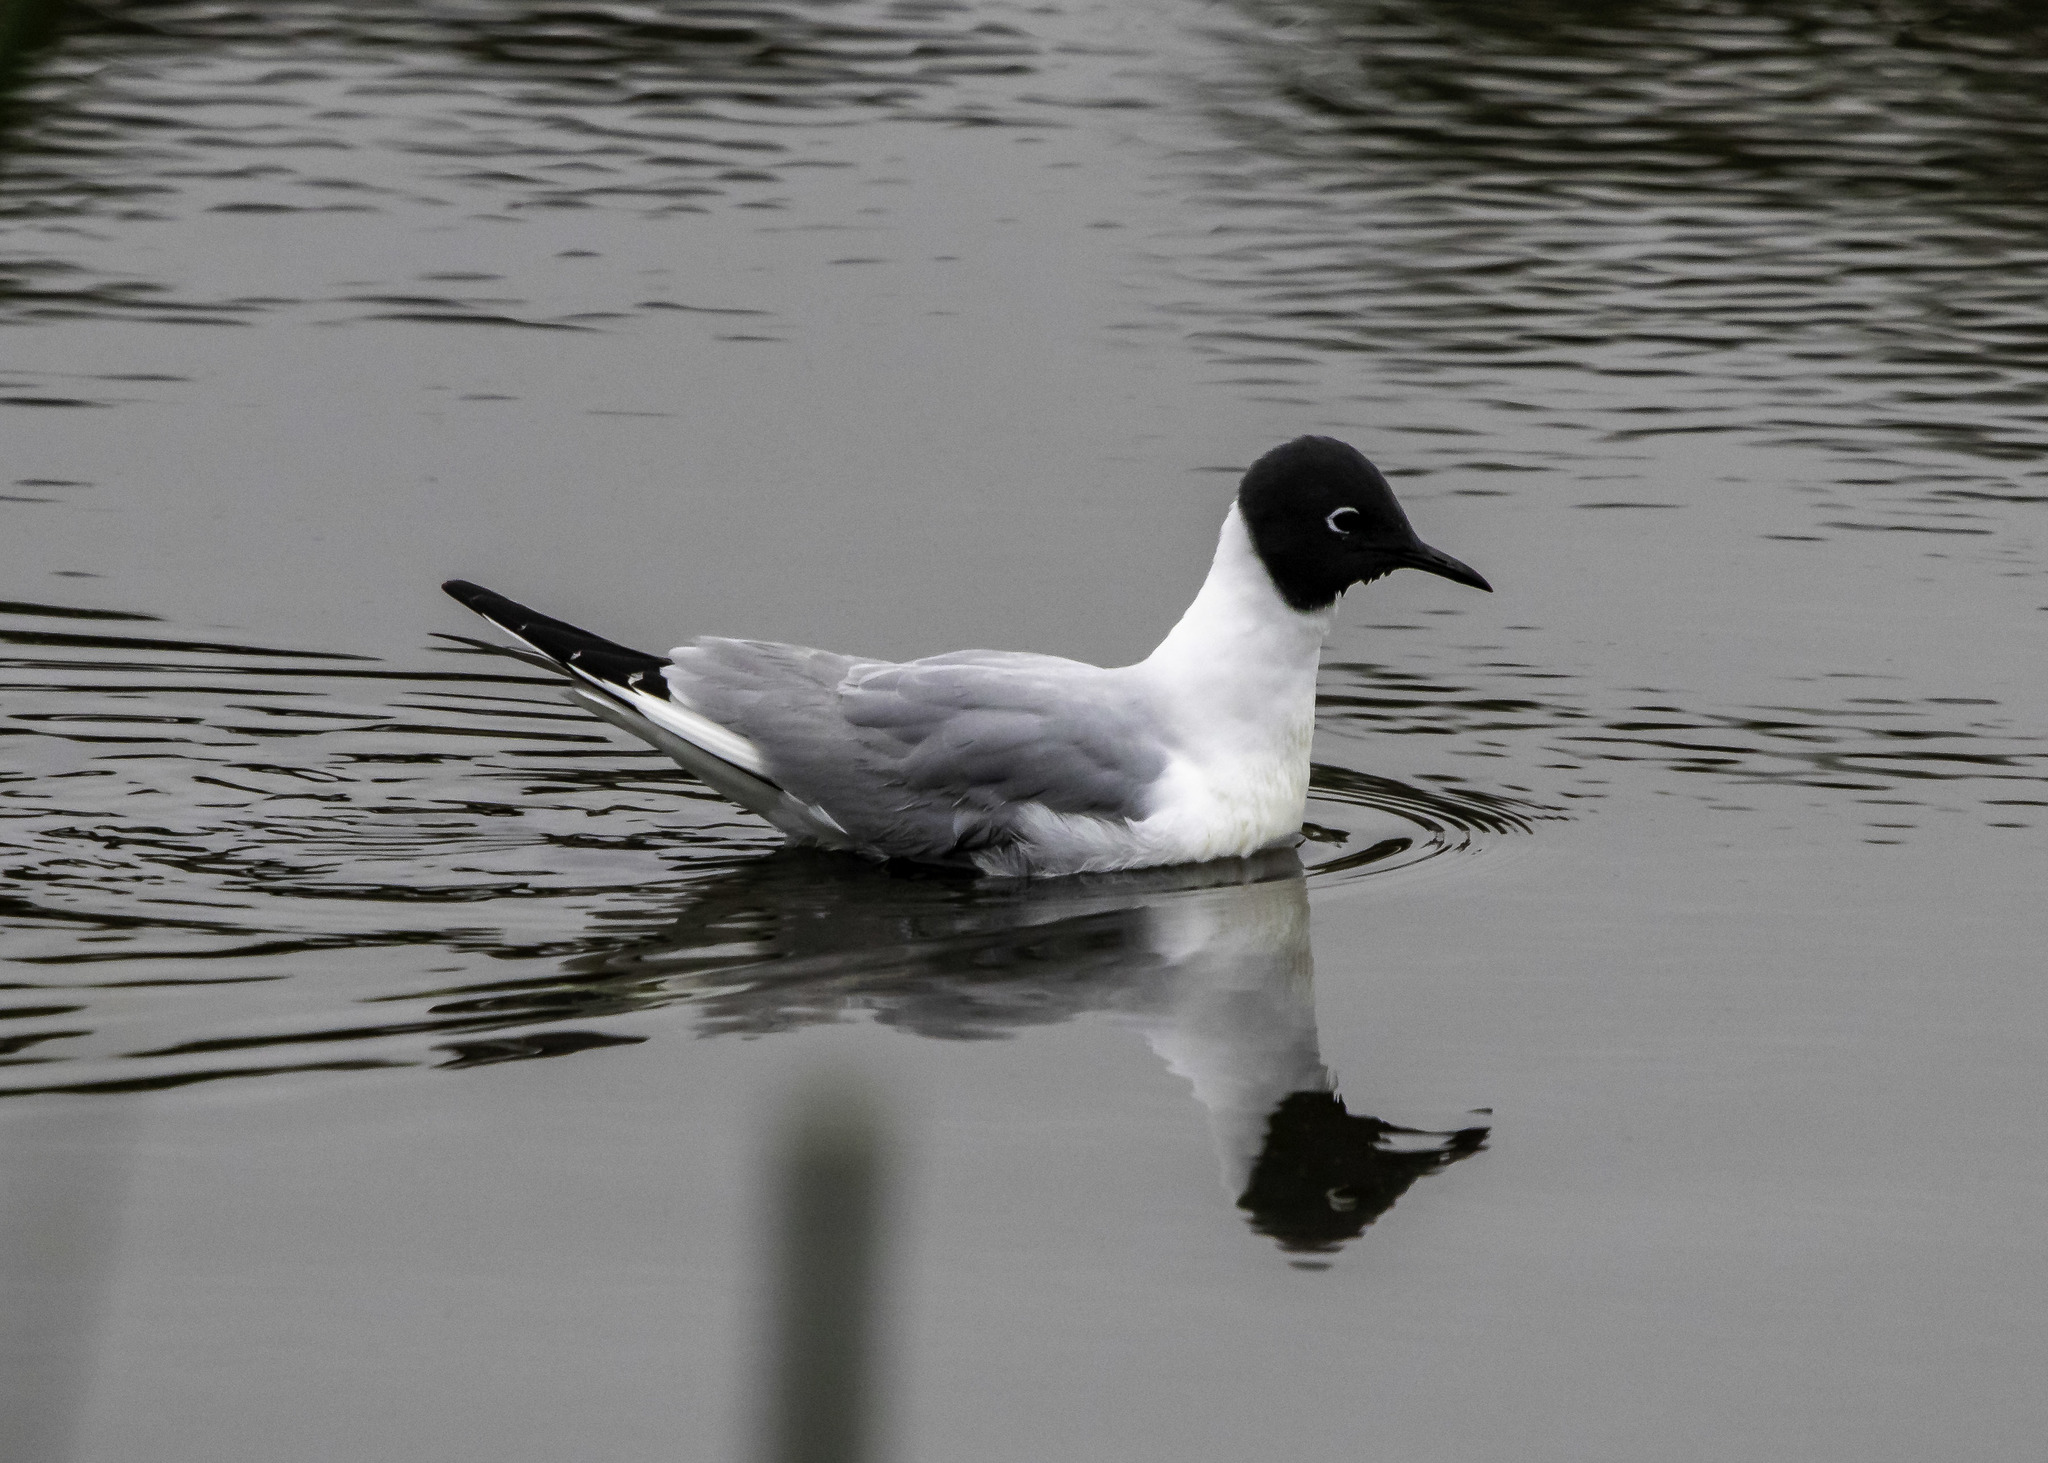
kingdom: Animalia
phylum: Chordata
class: Aves
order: Charadriiformes
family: Laridae
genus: Chroicocephalus
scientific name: Chroicocephalus philadelphia
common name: Bonaparte's gull
